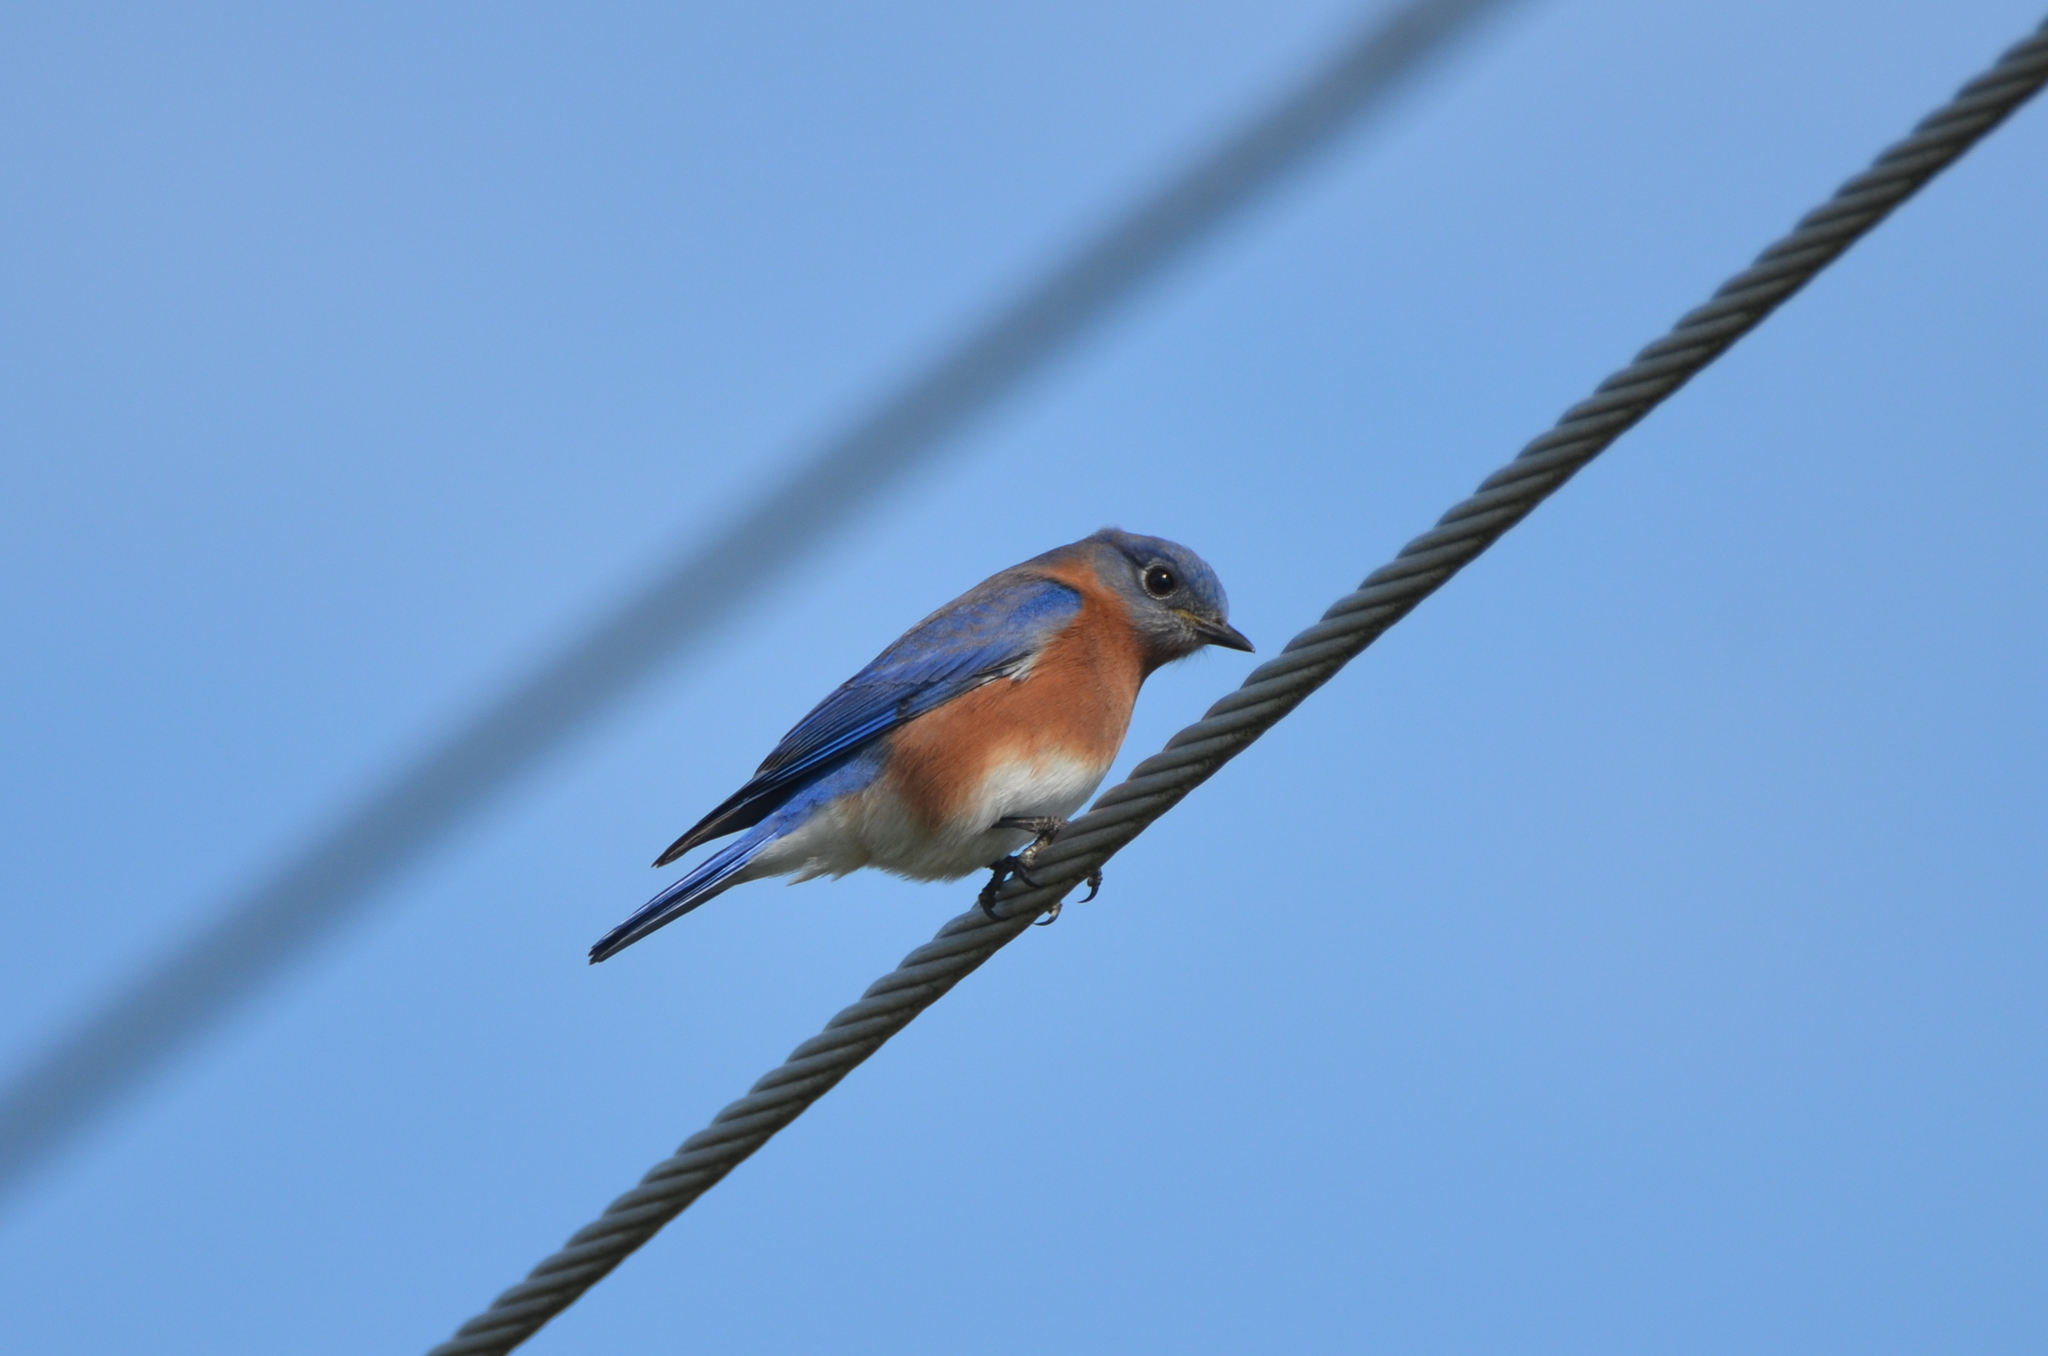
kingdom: Animalia
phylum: Chordata
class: Aves
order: Passeriformes
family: Turdidae
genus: Sialia
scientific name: Sialia sialis
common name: Eastern bluebird
